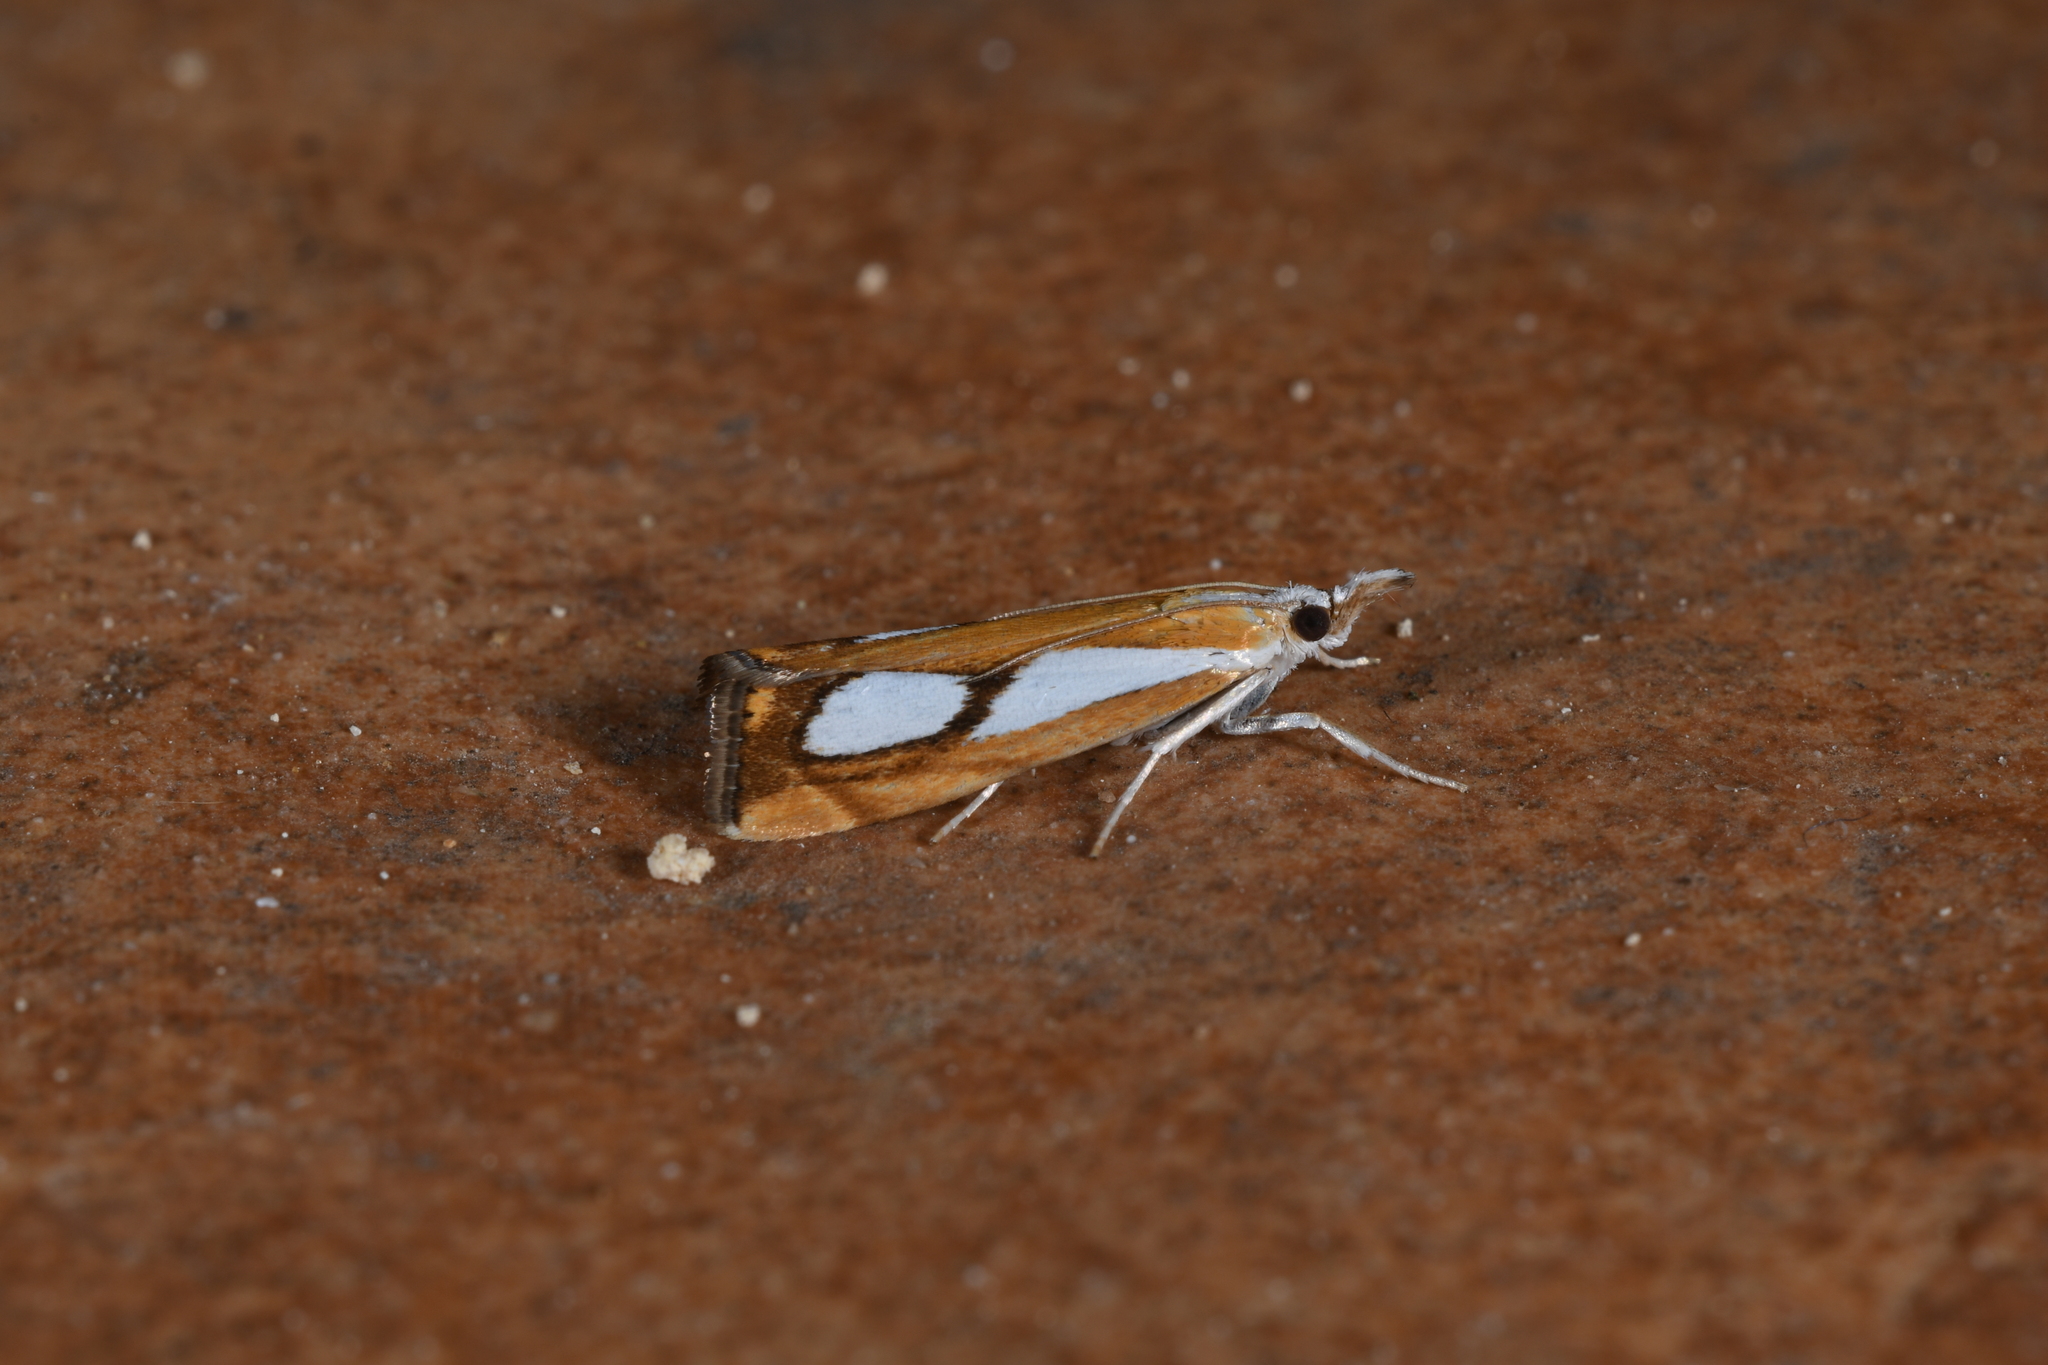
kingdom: Animalia
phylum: Arthropoda
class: Insecta
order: Lepidoptera
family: Crambidae
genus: Catoptria
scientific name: Catoptria pinella
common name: Pearl grass-veneer
